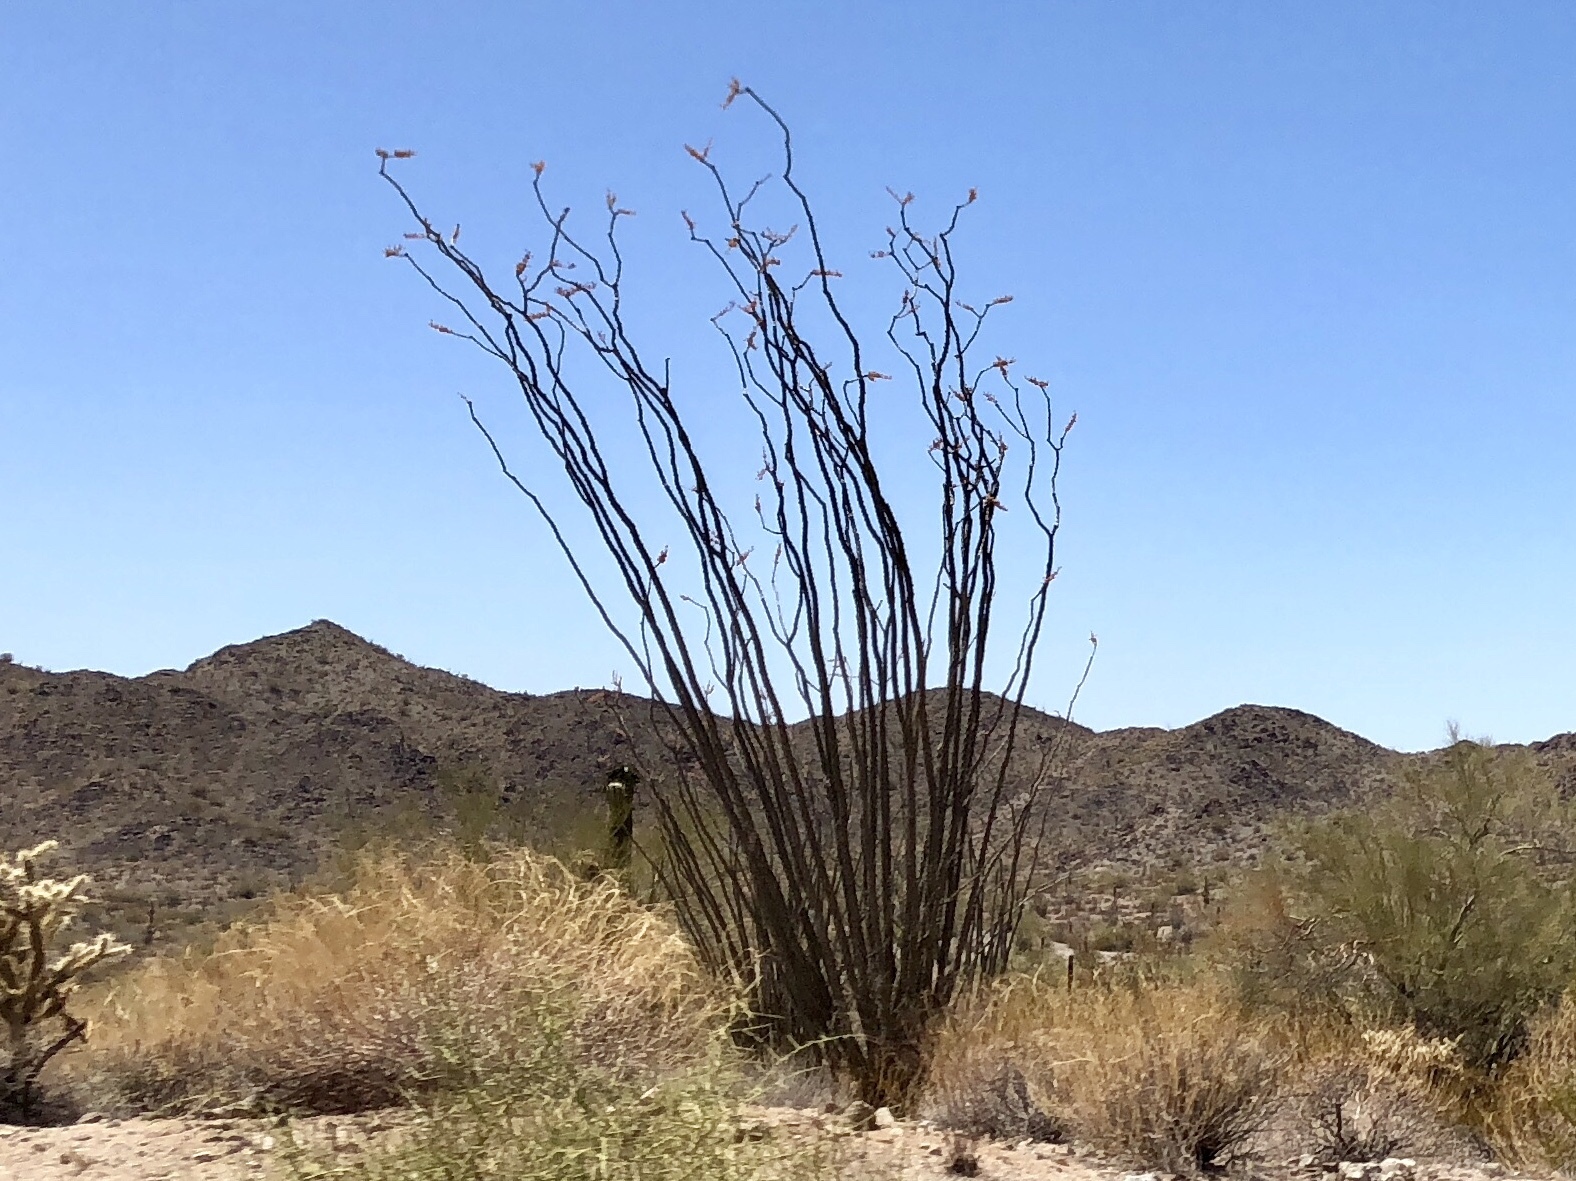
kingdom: Plantae
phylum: Tracheophyta
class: Magnoliopsida
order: Ericales
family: Fouquieriaceae
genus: Fouquieria
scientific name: Fouquieria splendens
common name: Vine-cactus
